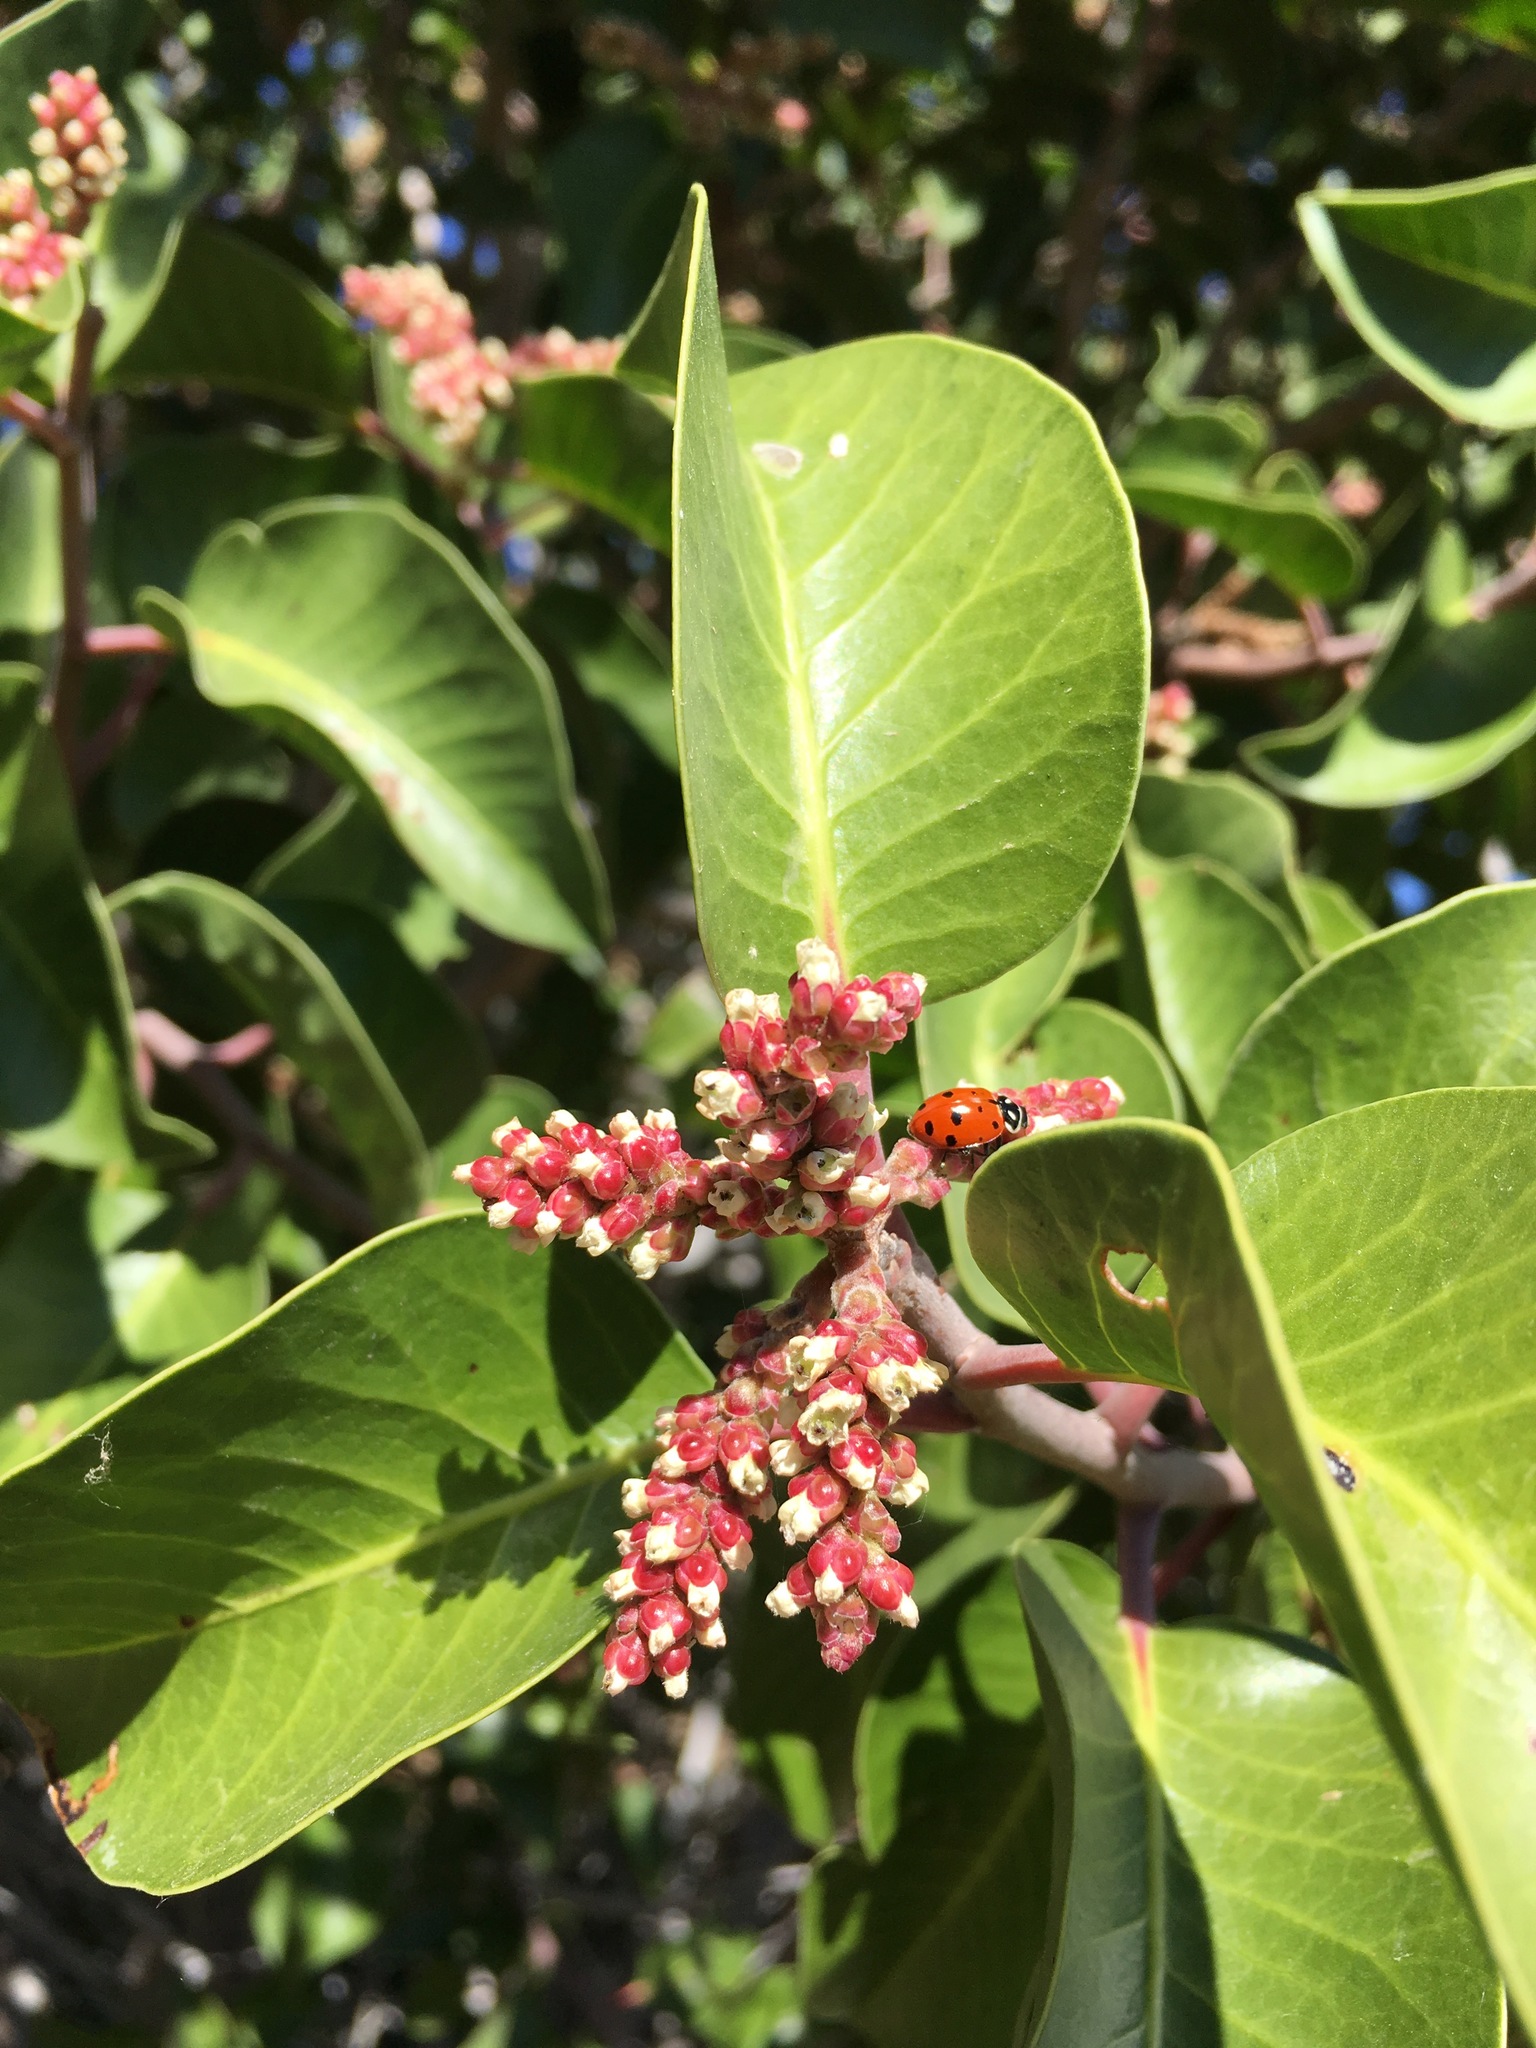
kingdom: Plantae
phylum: Tracheophyta
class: Magnoliopsida
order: Sapindales
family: Anacardiaceae
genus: Rhus
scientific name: Rhus ovata
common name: Sugar sumac
